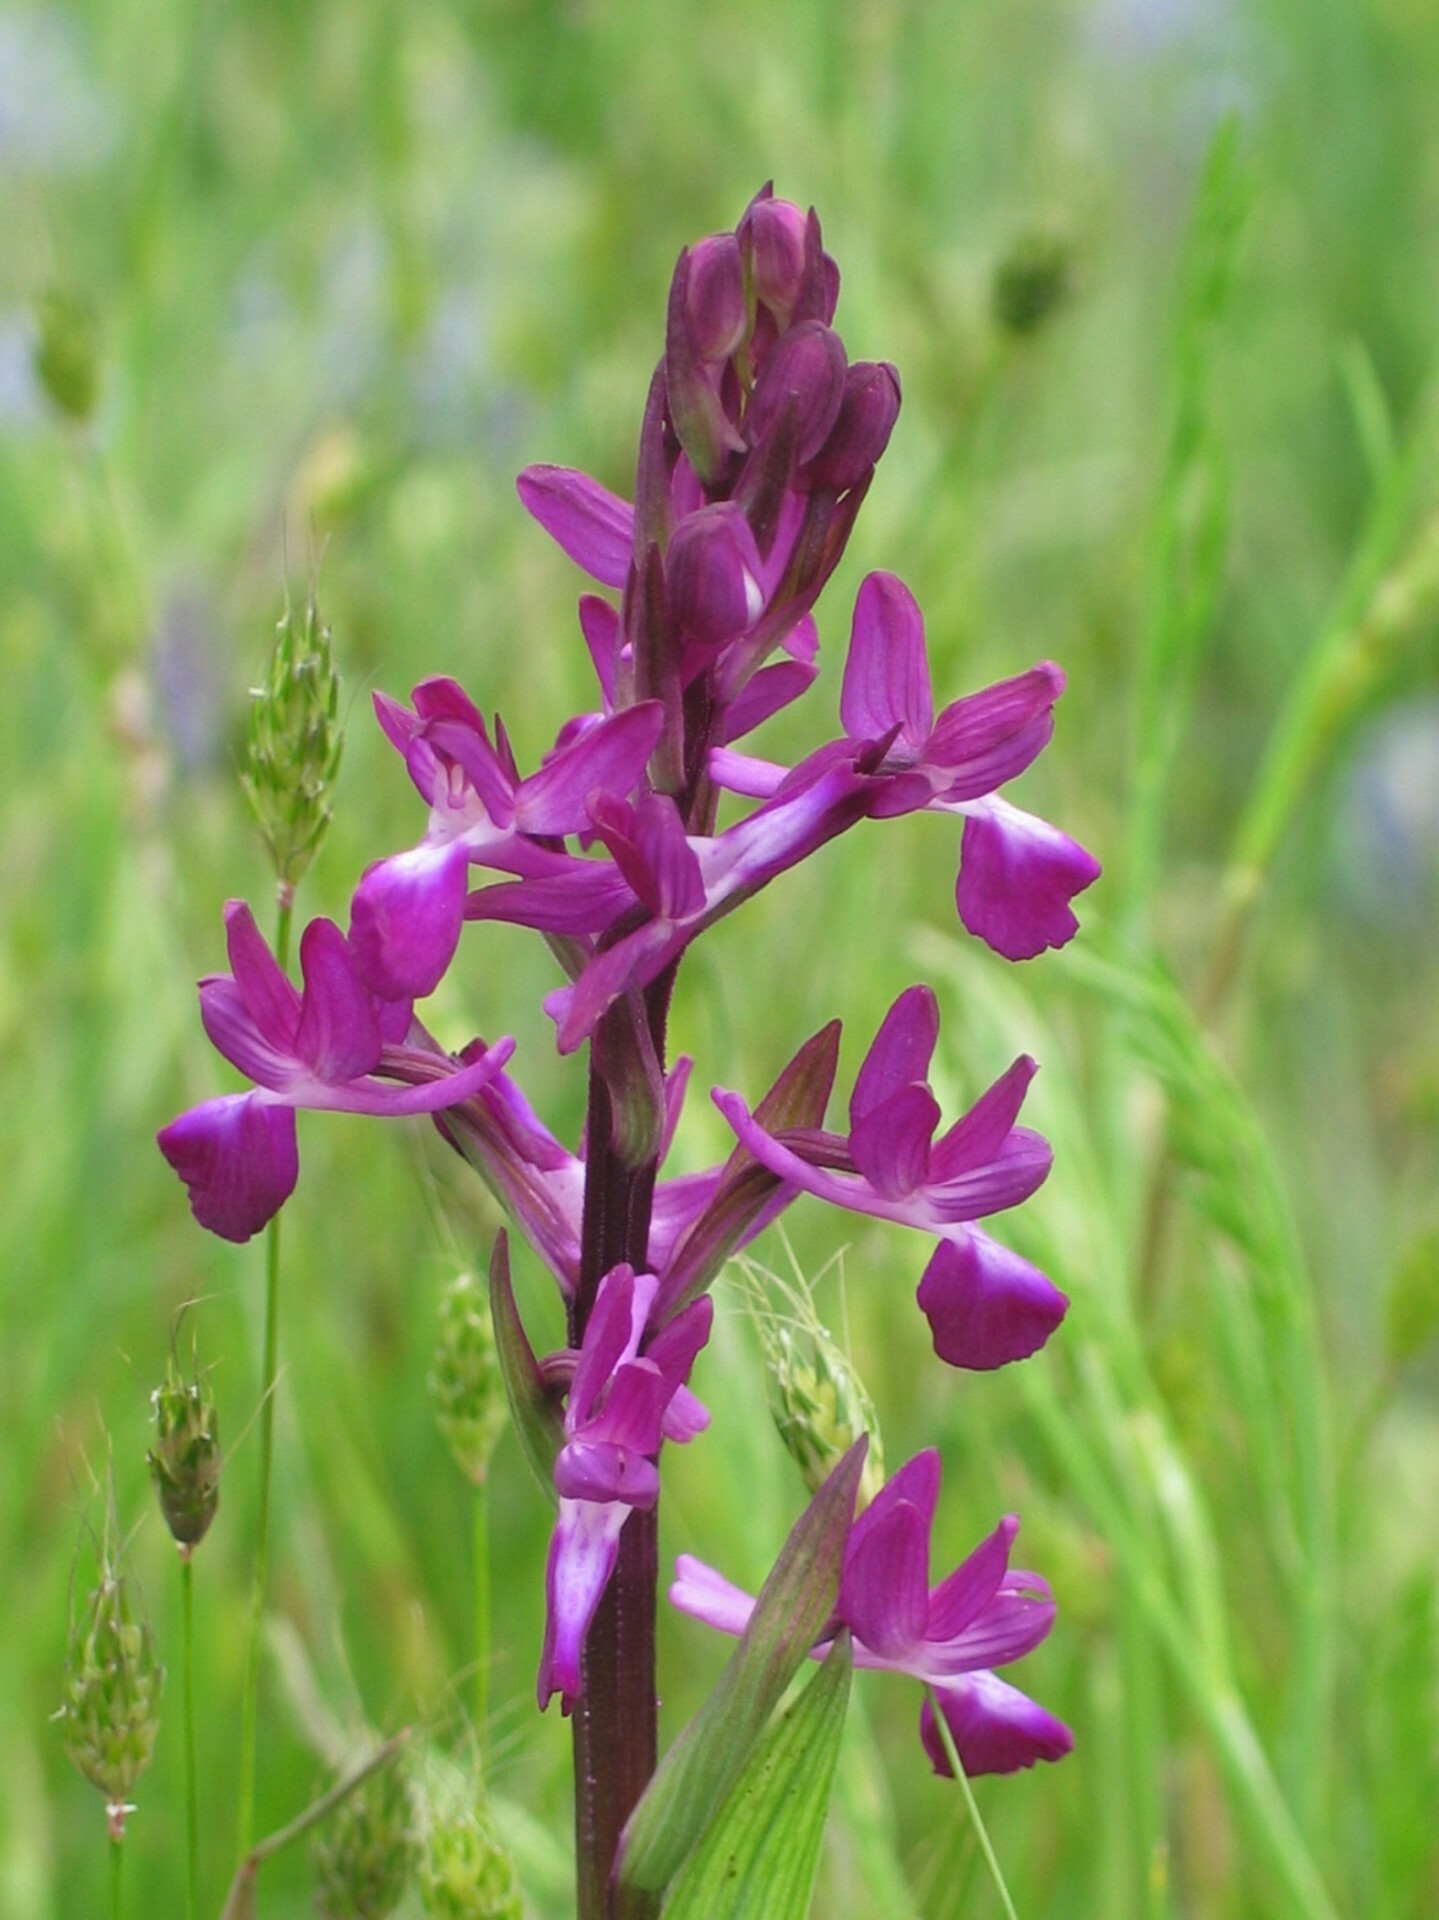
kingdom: Plantae
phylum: Tracheophyta
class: Liliopsida
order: Asparagales
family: Orchidaceae
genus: Anacamptis
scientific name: Anacamptis laxiflora
